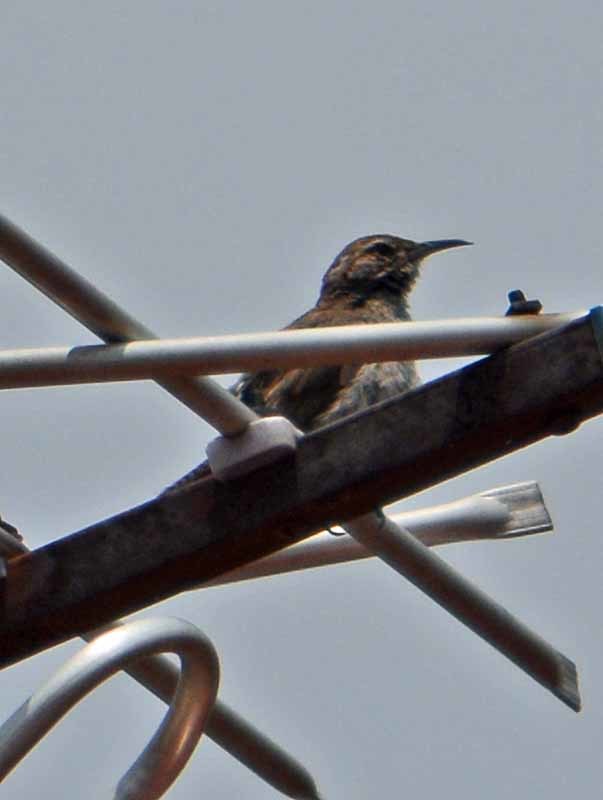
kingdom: Animalia
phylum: Chordata
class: Aves
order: Passeriformes
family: Troglodytidae
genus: Thryomanes
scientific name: Thryomanes bewickii
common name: Bewick's wren
